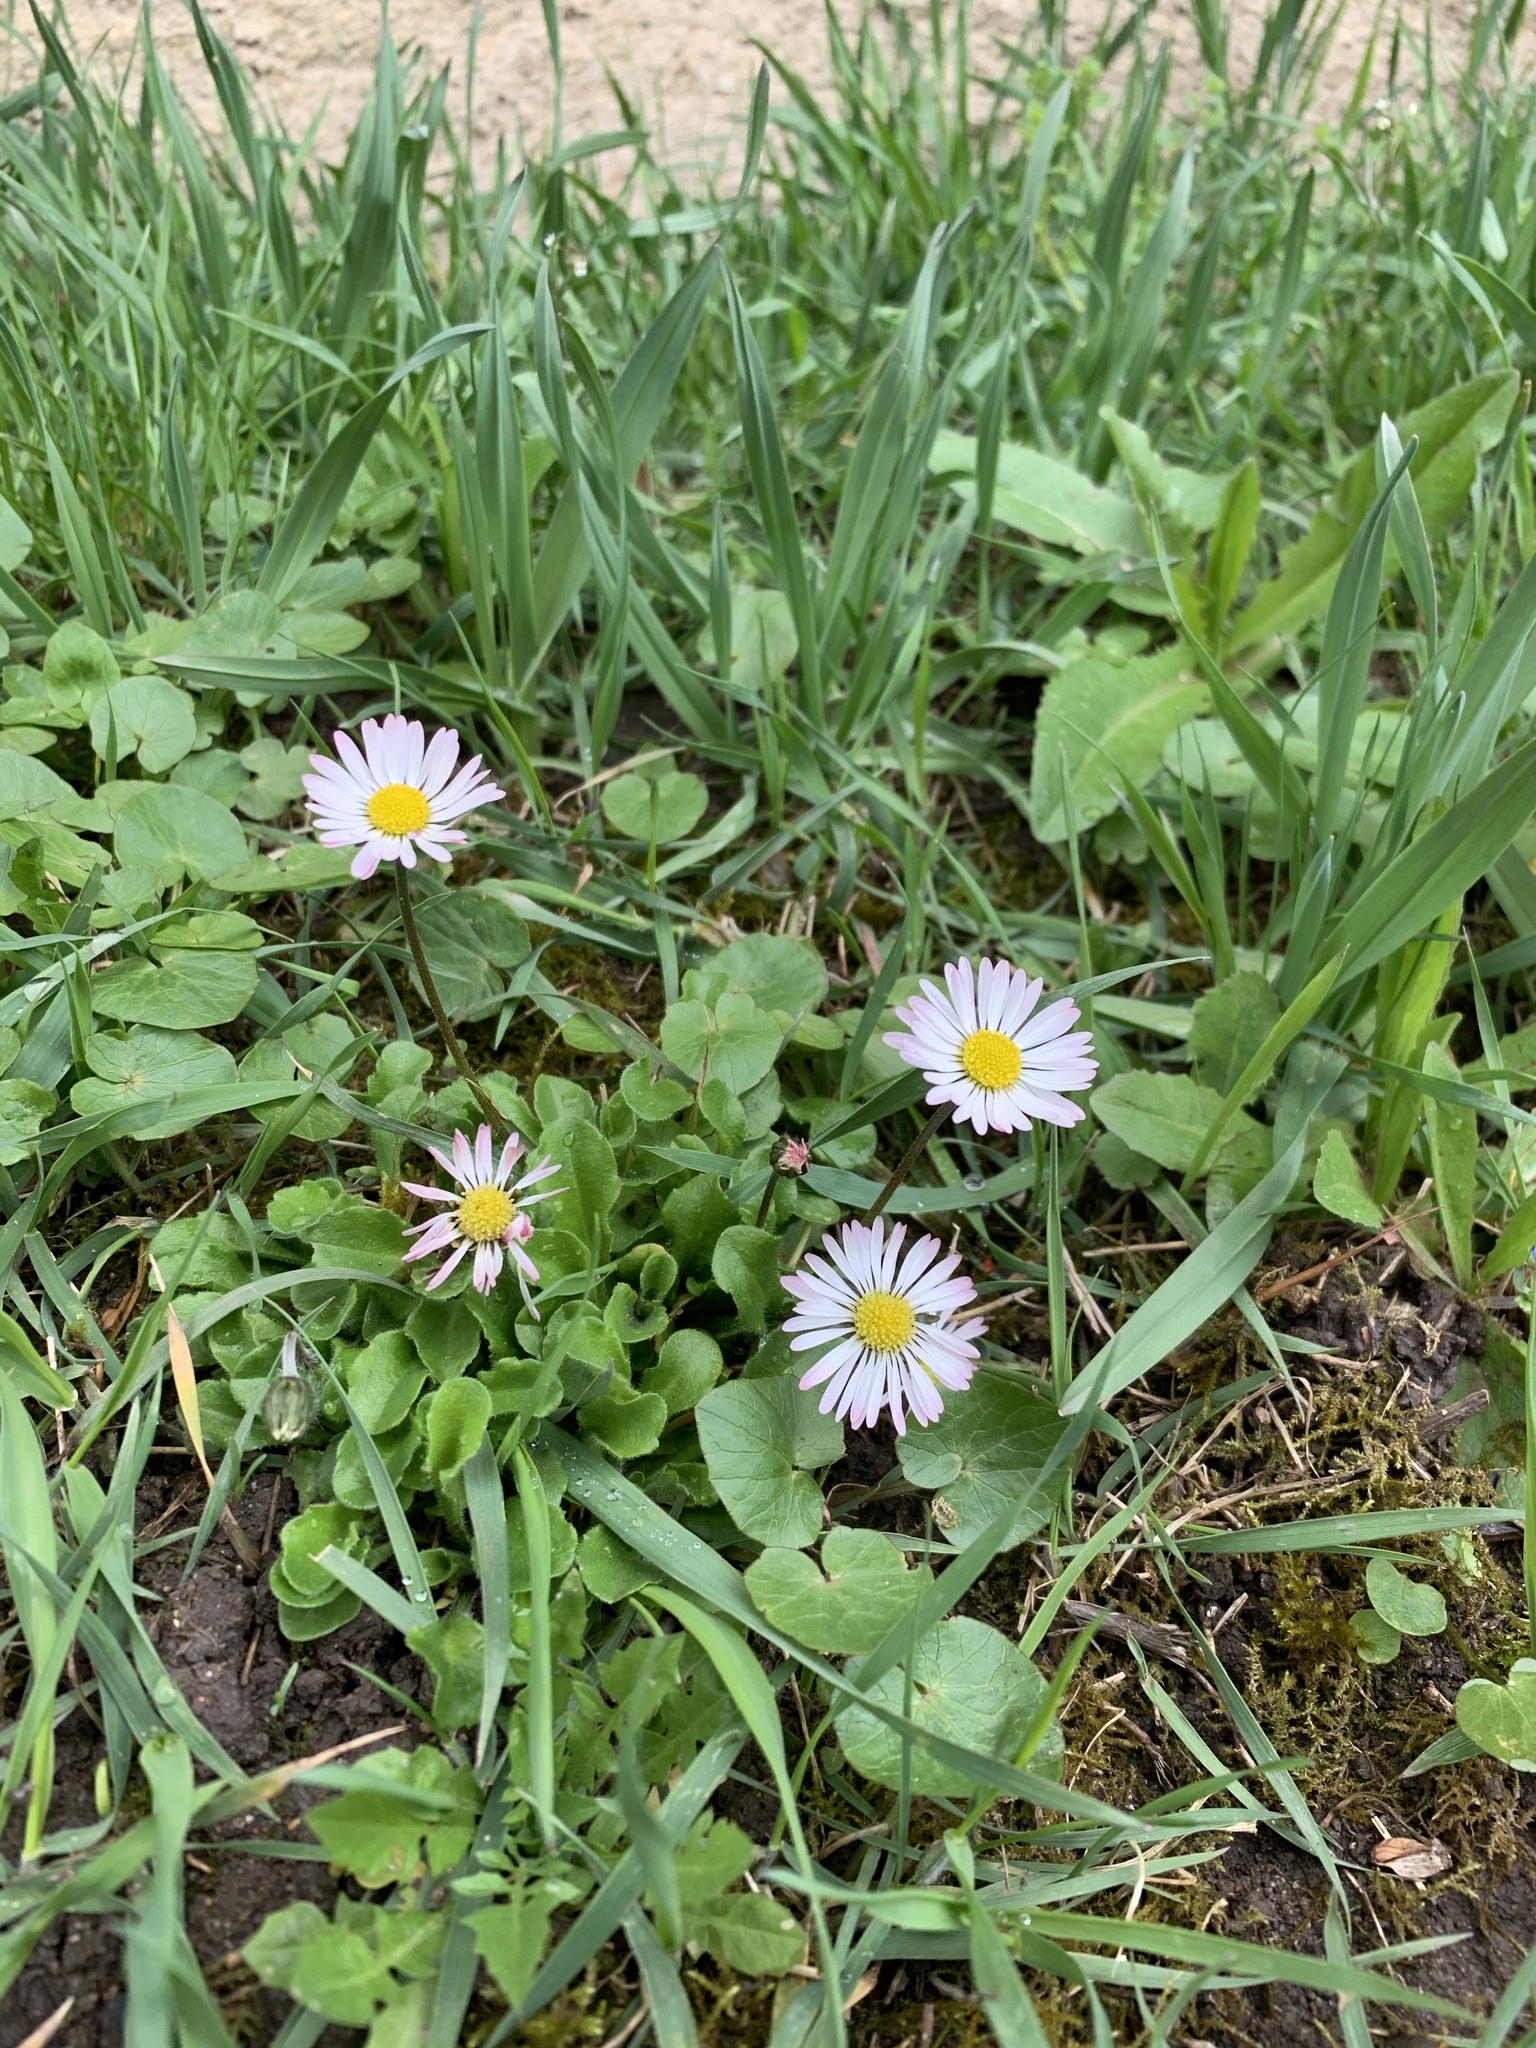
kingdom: Plantae
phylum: Tracheophyta
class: Magnoliopsida
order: Asterales
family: Asteraceae
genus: Bellis
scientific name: Bellis perennis
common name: Lawndaisy
